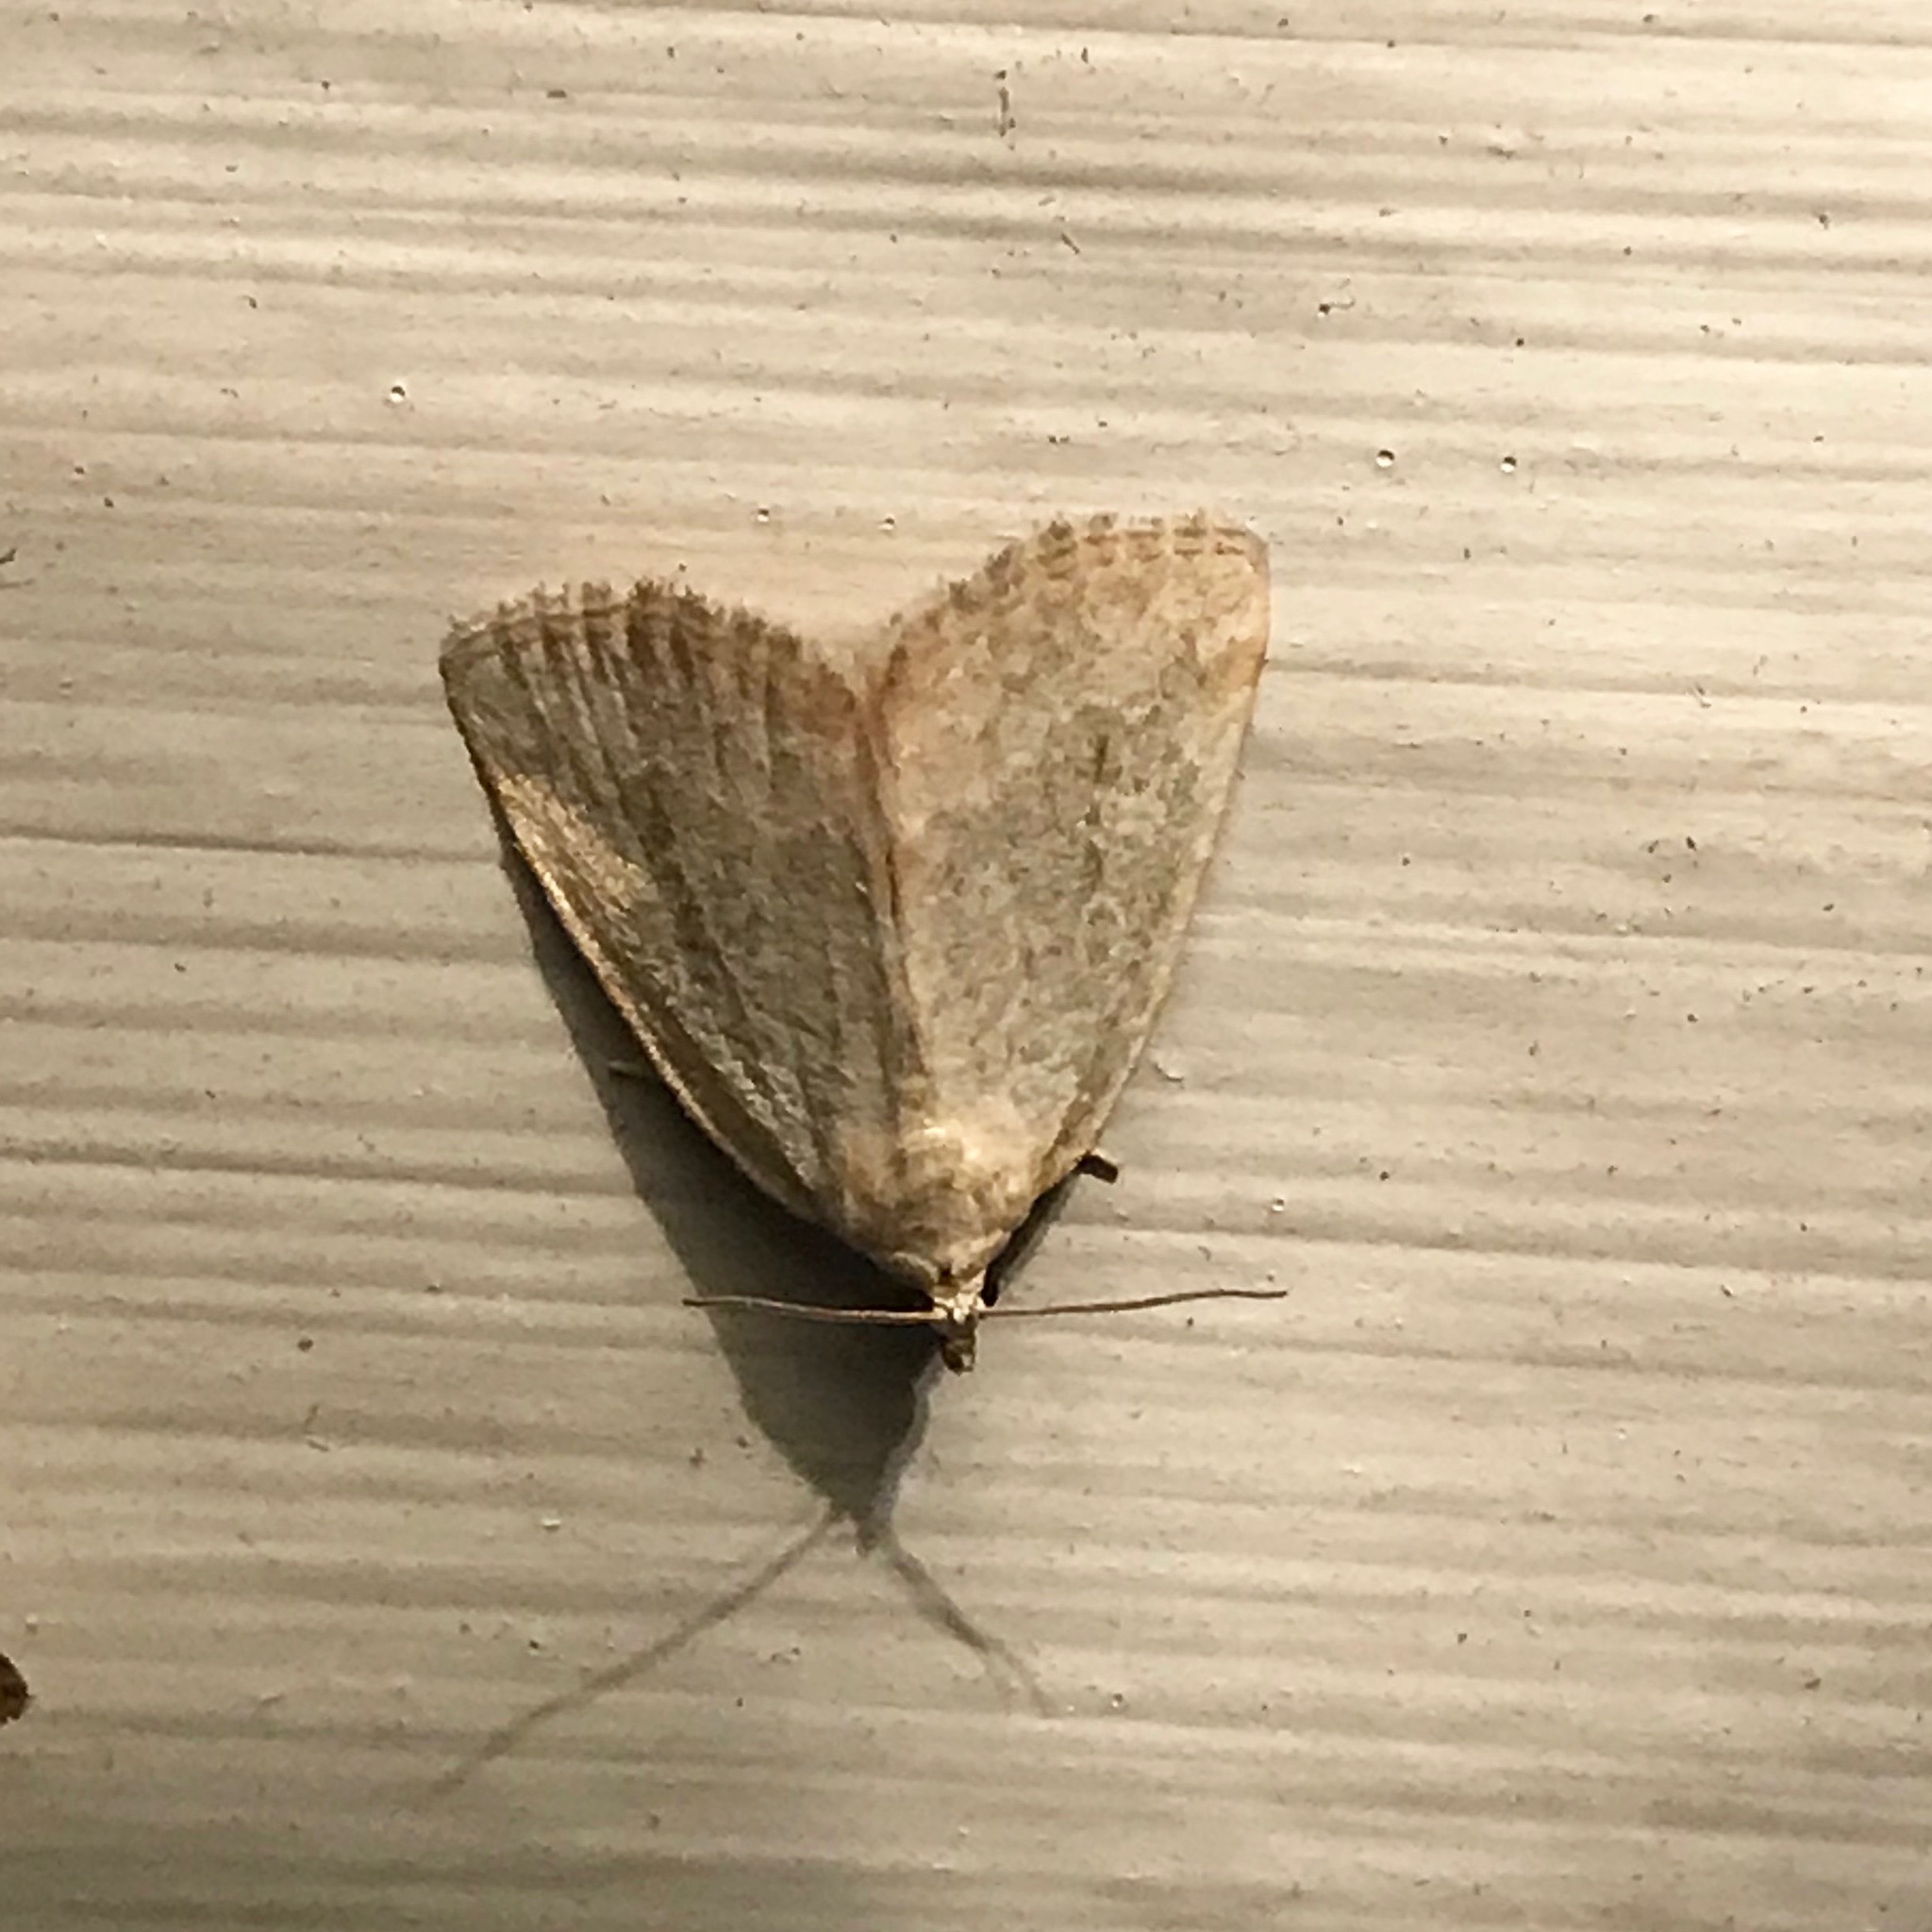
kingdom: Animalia
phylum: Arthropoda
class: Insecta
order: Lepidoptera
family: Noctuidae
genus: Protodeltote
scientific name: Protodeltote albidula
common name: Pale glyph
